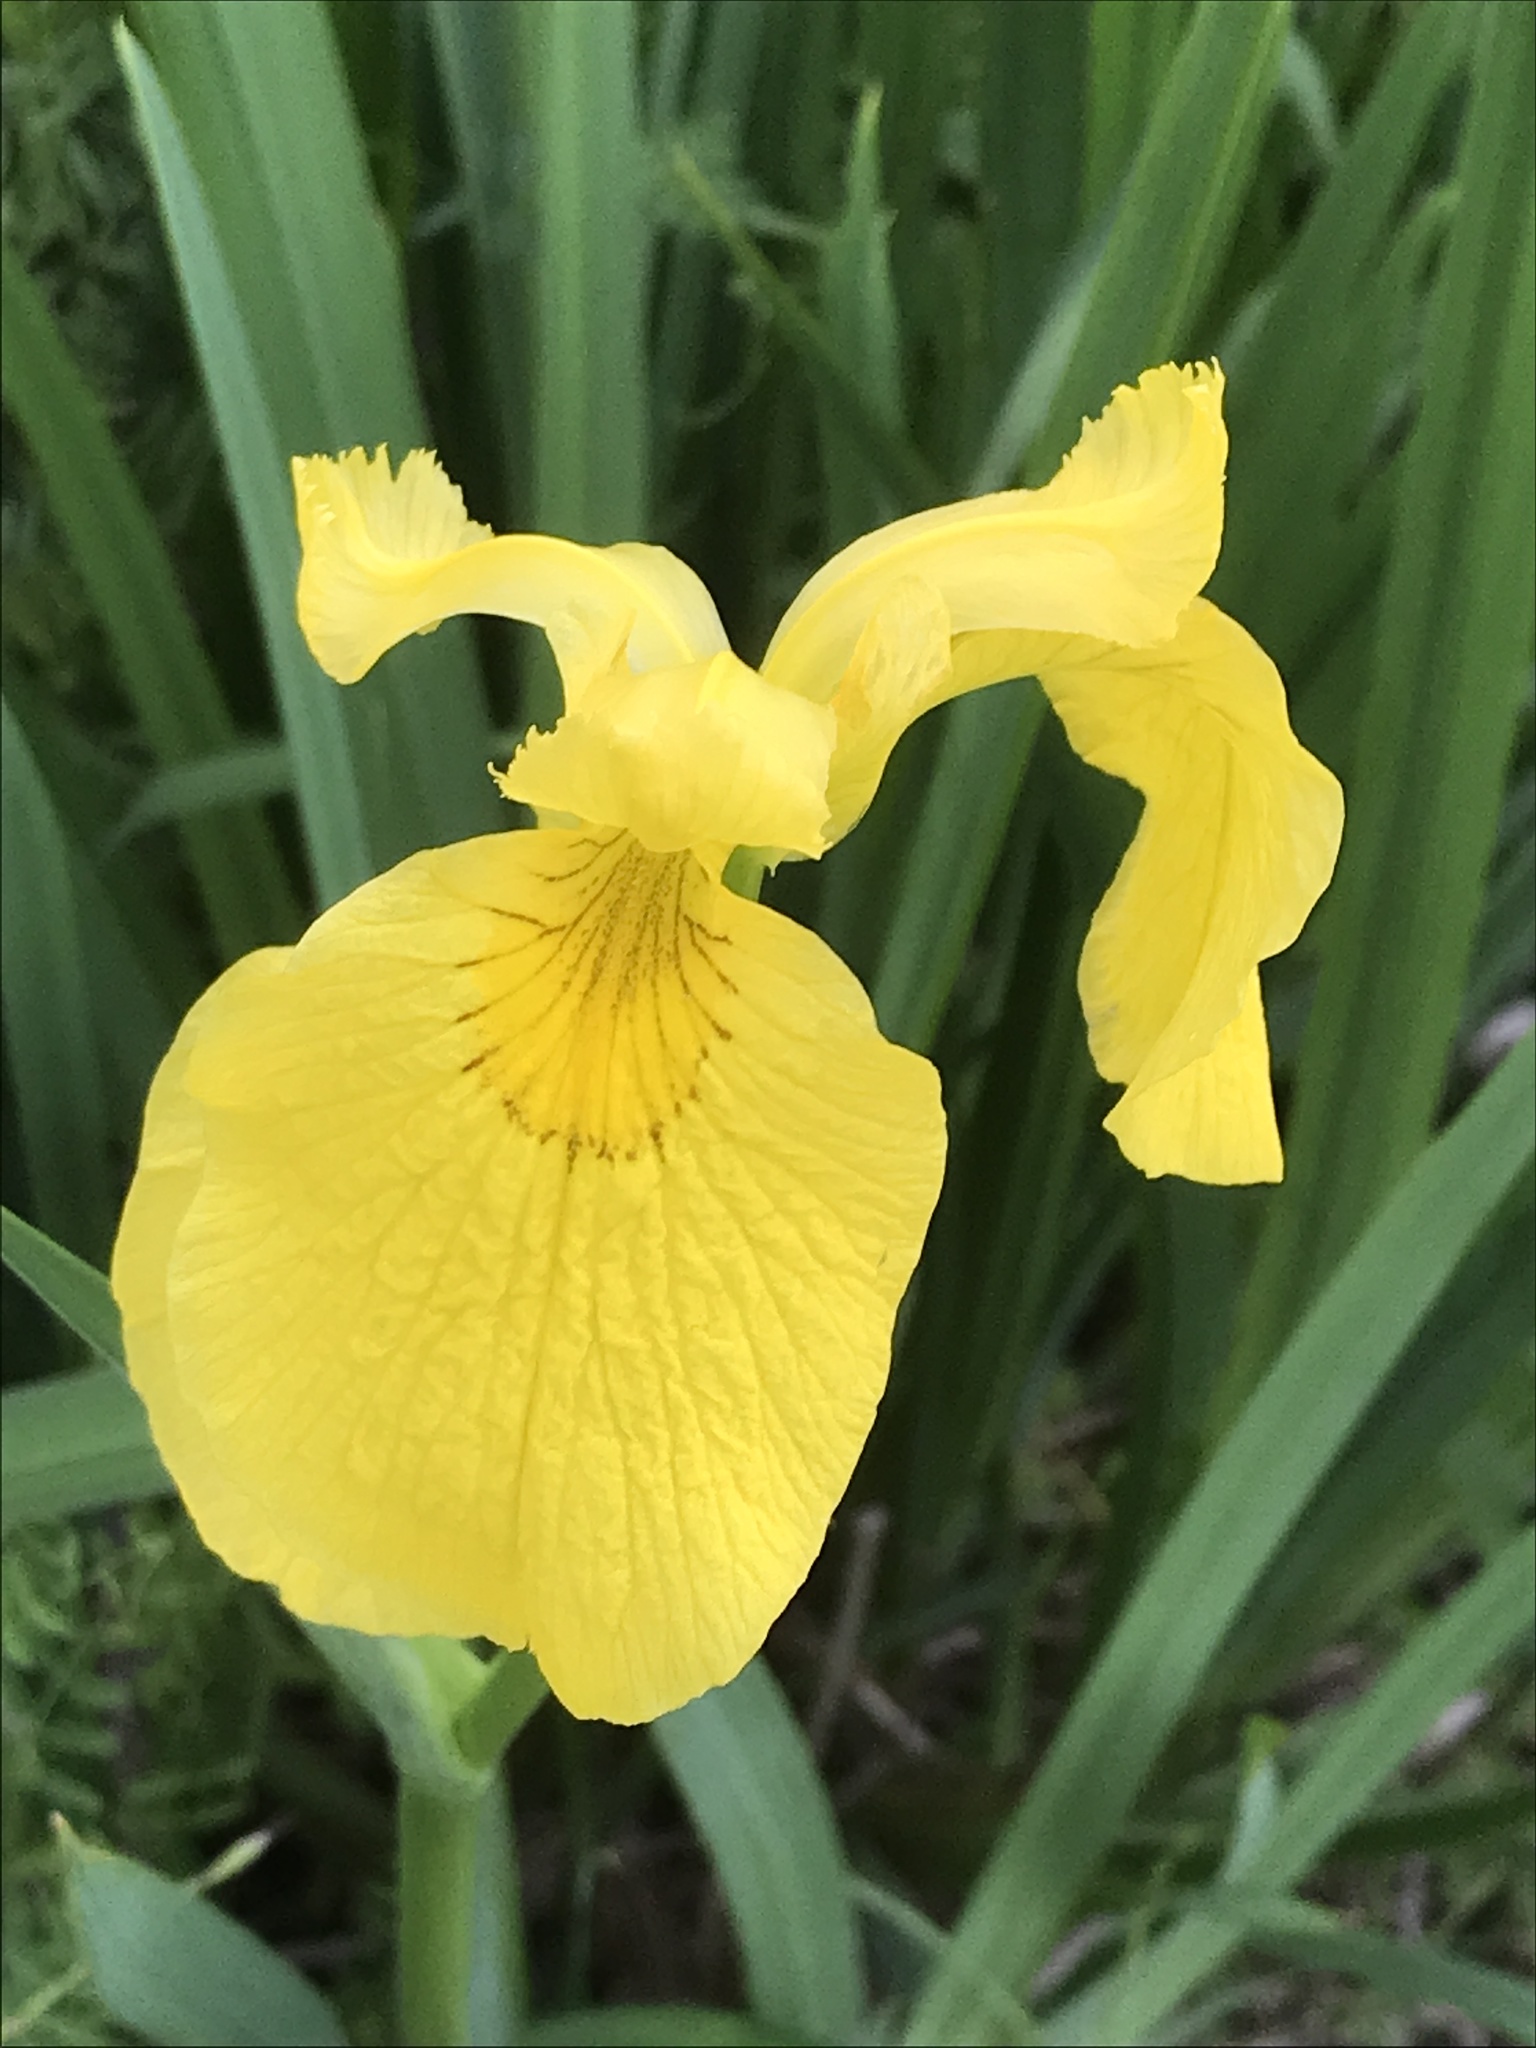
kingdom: Plantae
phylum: Tracheophyta
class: Liliopsida
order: Asparagales
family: Iridaceae
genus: Iris
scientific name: Iris pseudacorus
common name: Yellow flag
